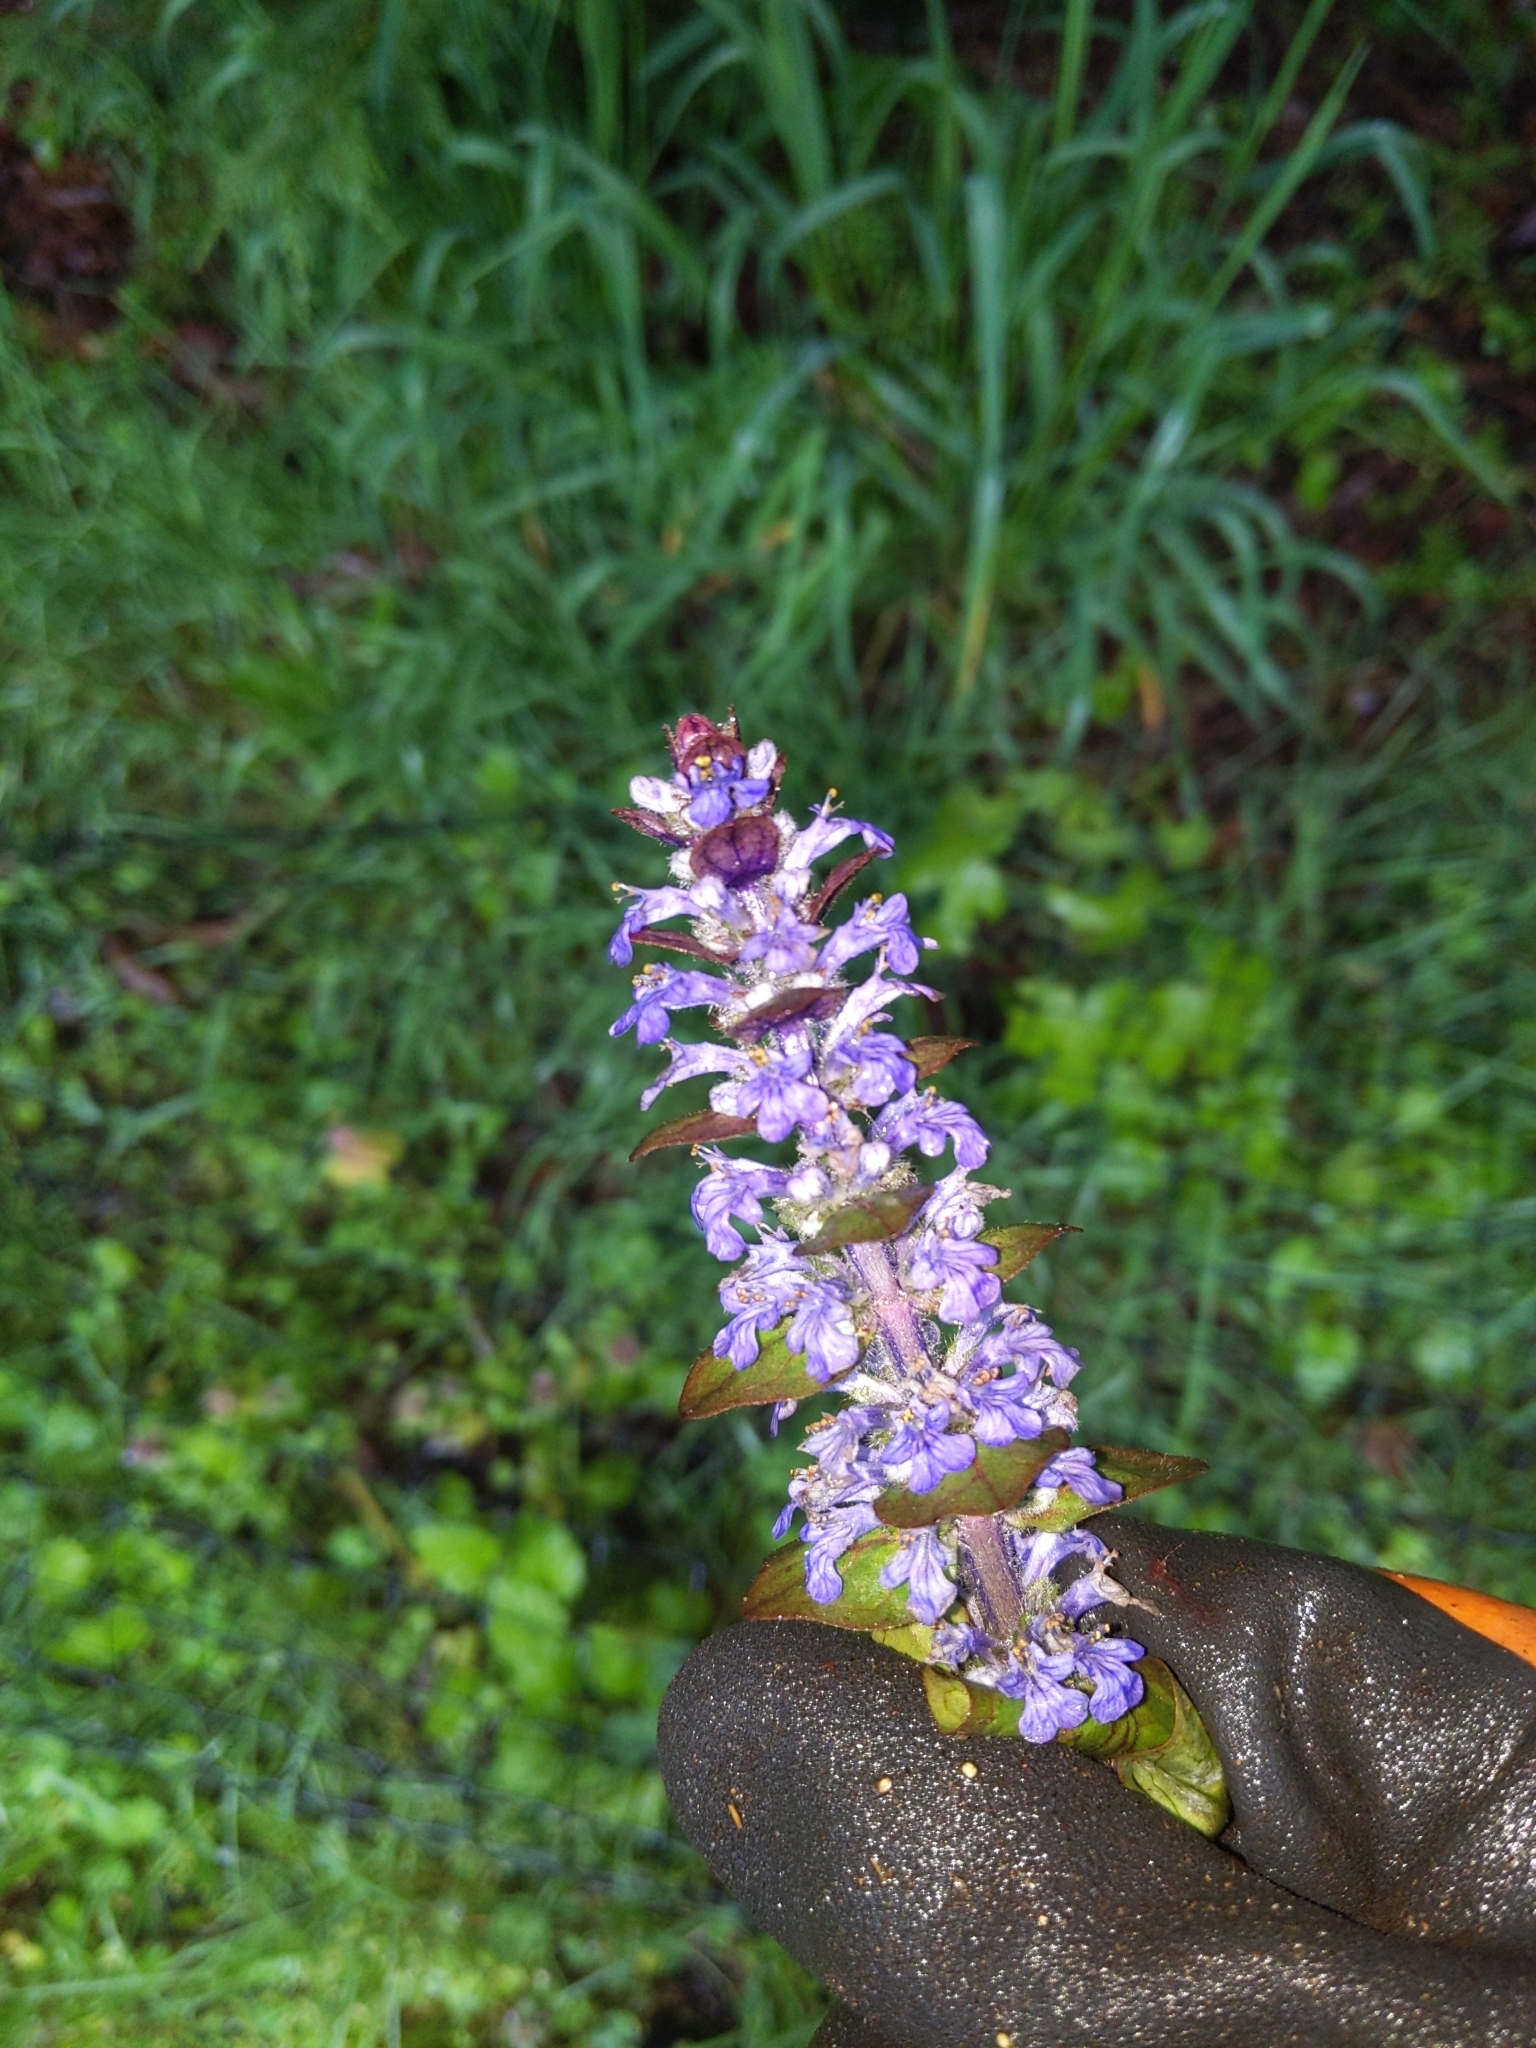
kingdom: Plantae
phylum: Tracheophyta
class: Magnoliopsida
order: Lamiales
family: Lamiaceae
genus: Ajuga
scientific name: Ajuga reptans
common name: Bugle
